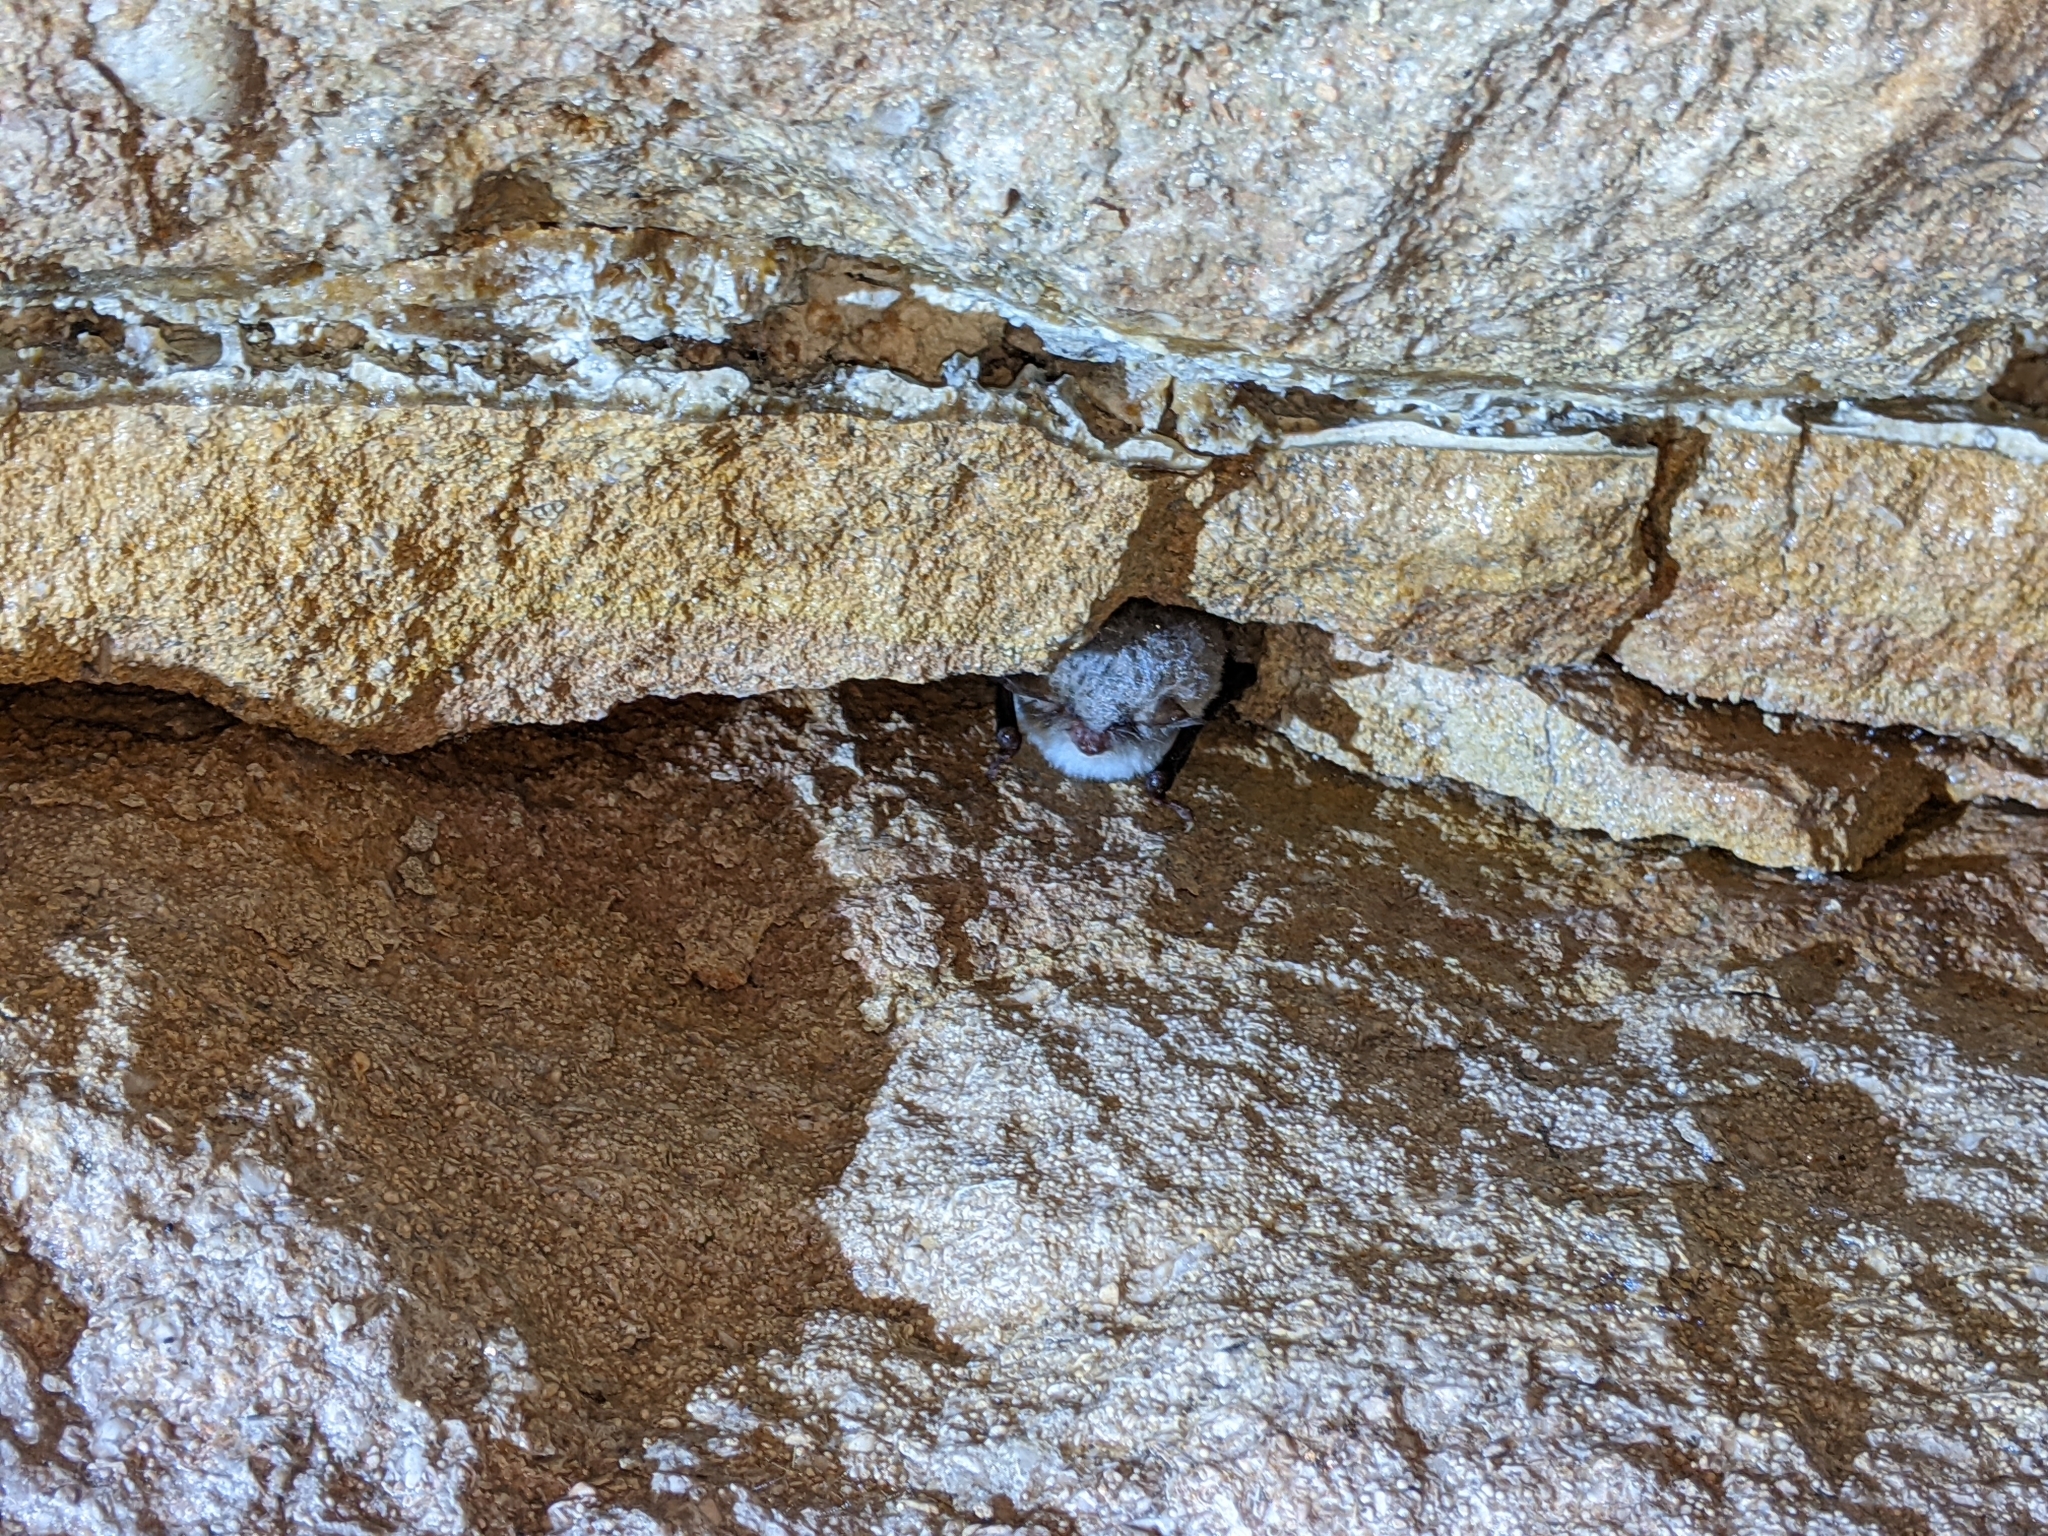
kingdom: Animalia
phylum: Chordata
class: Mammalia
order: Chiroptera
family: Vespertilionidae
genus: Myotis
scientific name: Myotis nattereri
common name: Natterer's bat
